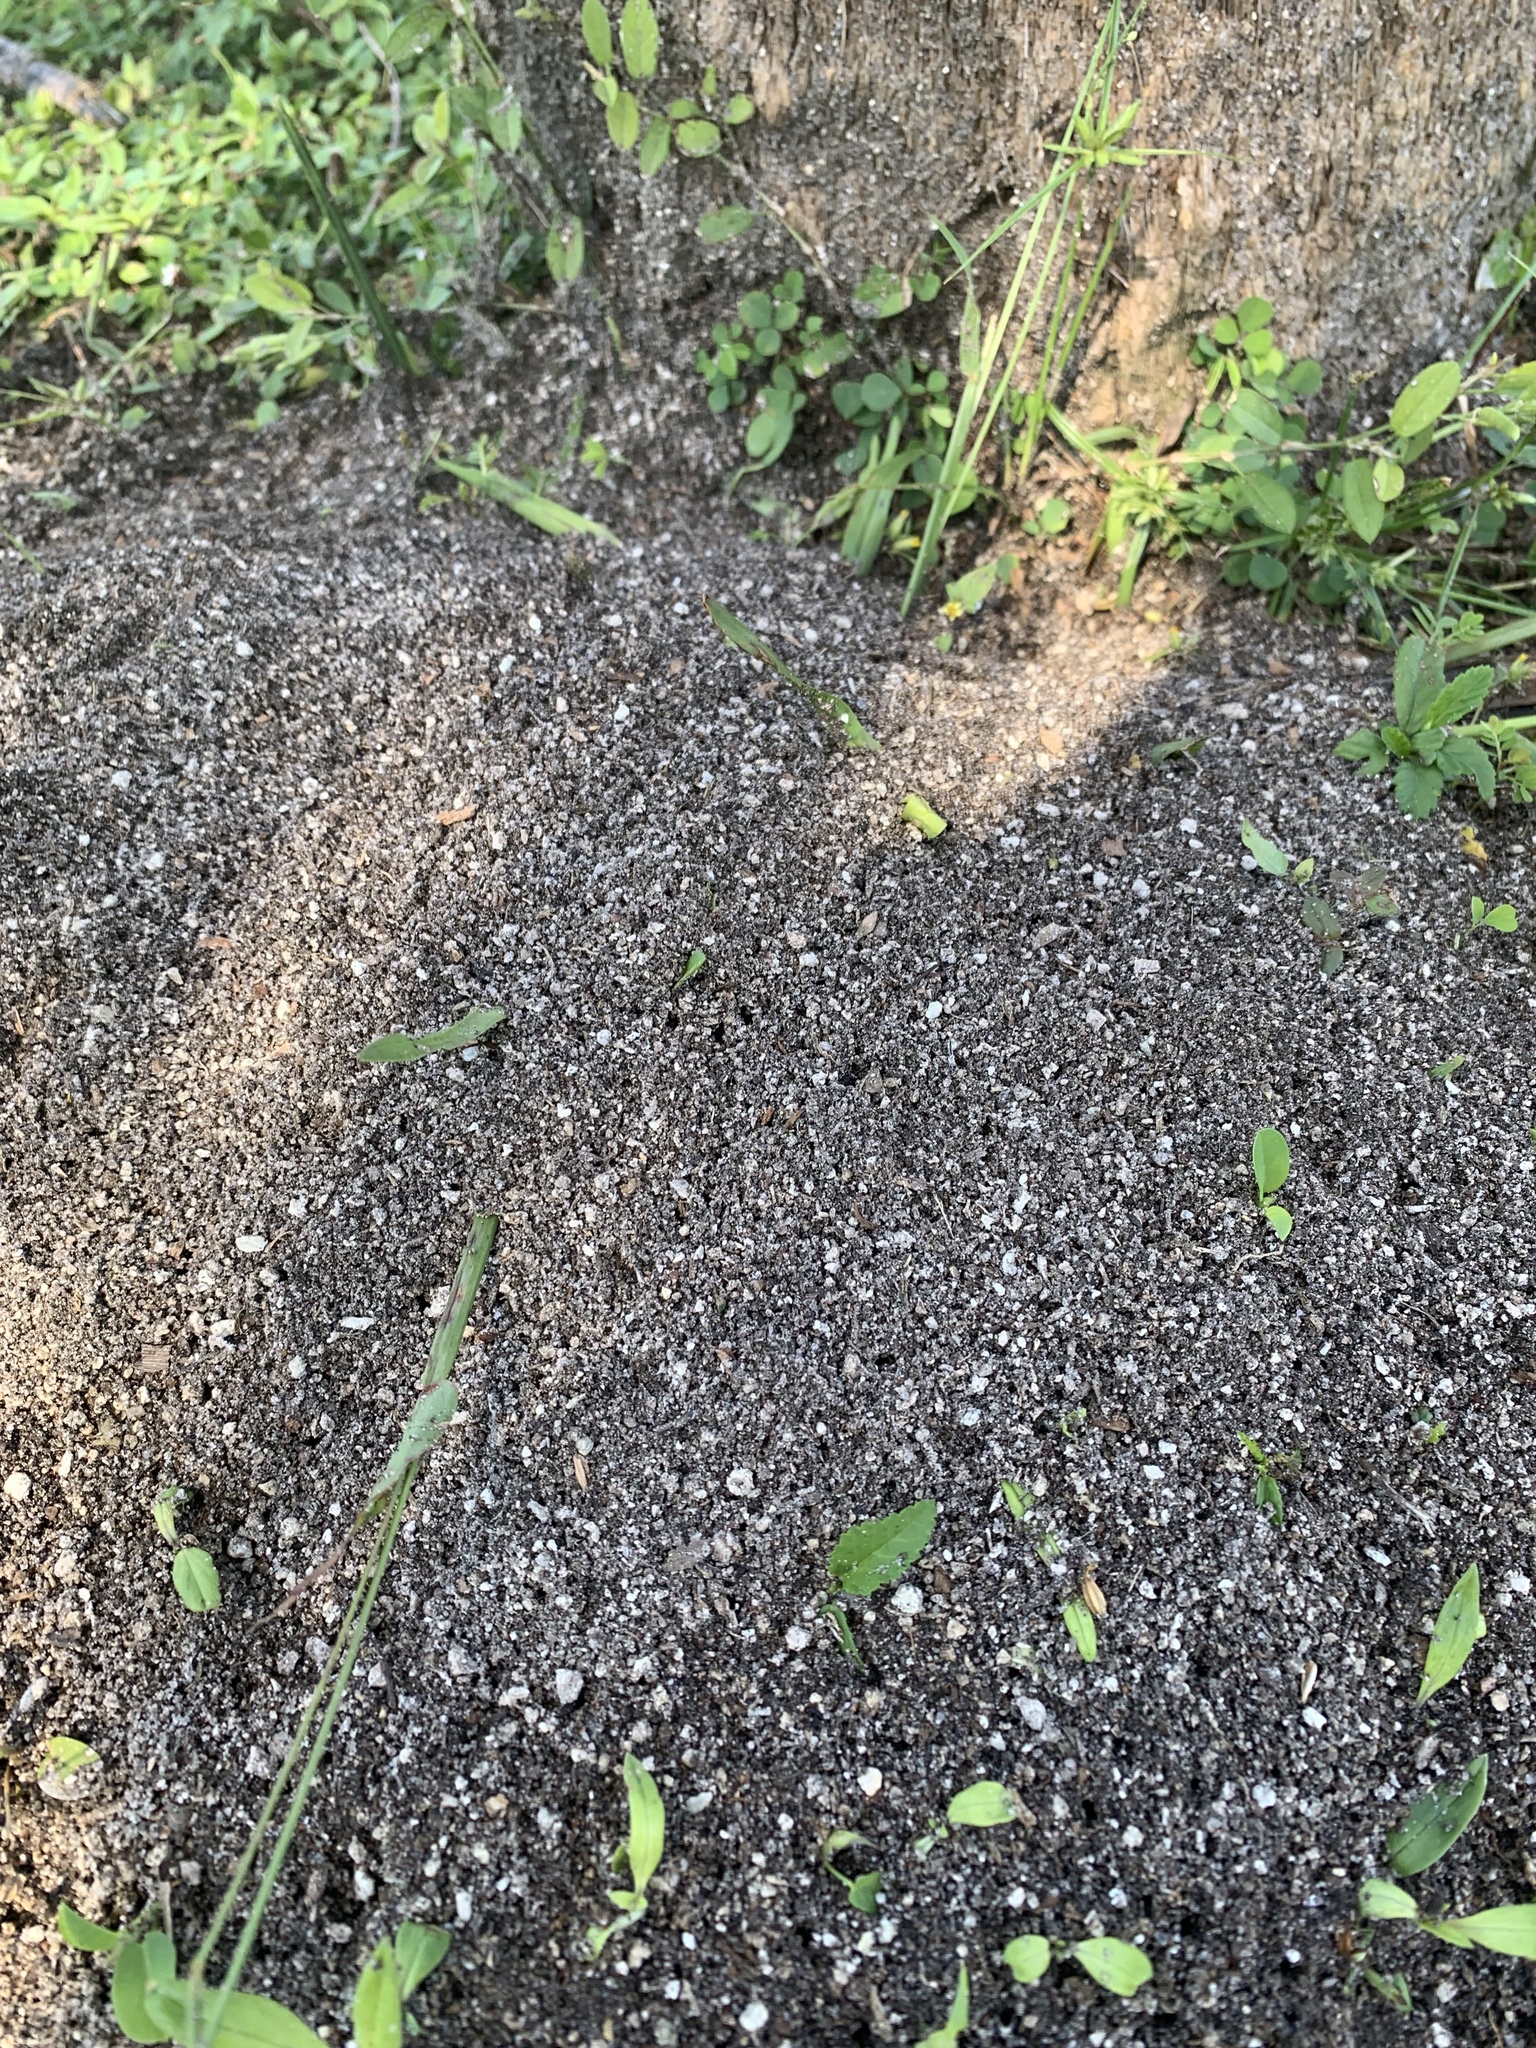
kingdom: Animalia
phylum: Arthropoda
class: Insecta
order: Hymenoptera
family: Formicidae
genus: Solenopsis
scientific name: Solenopsis invicta
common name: Red imported fire ant
